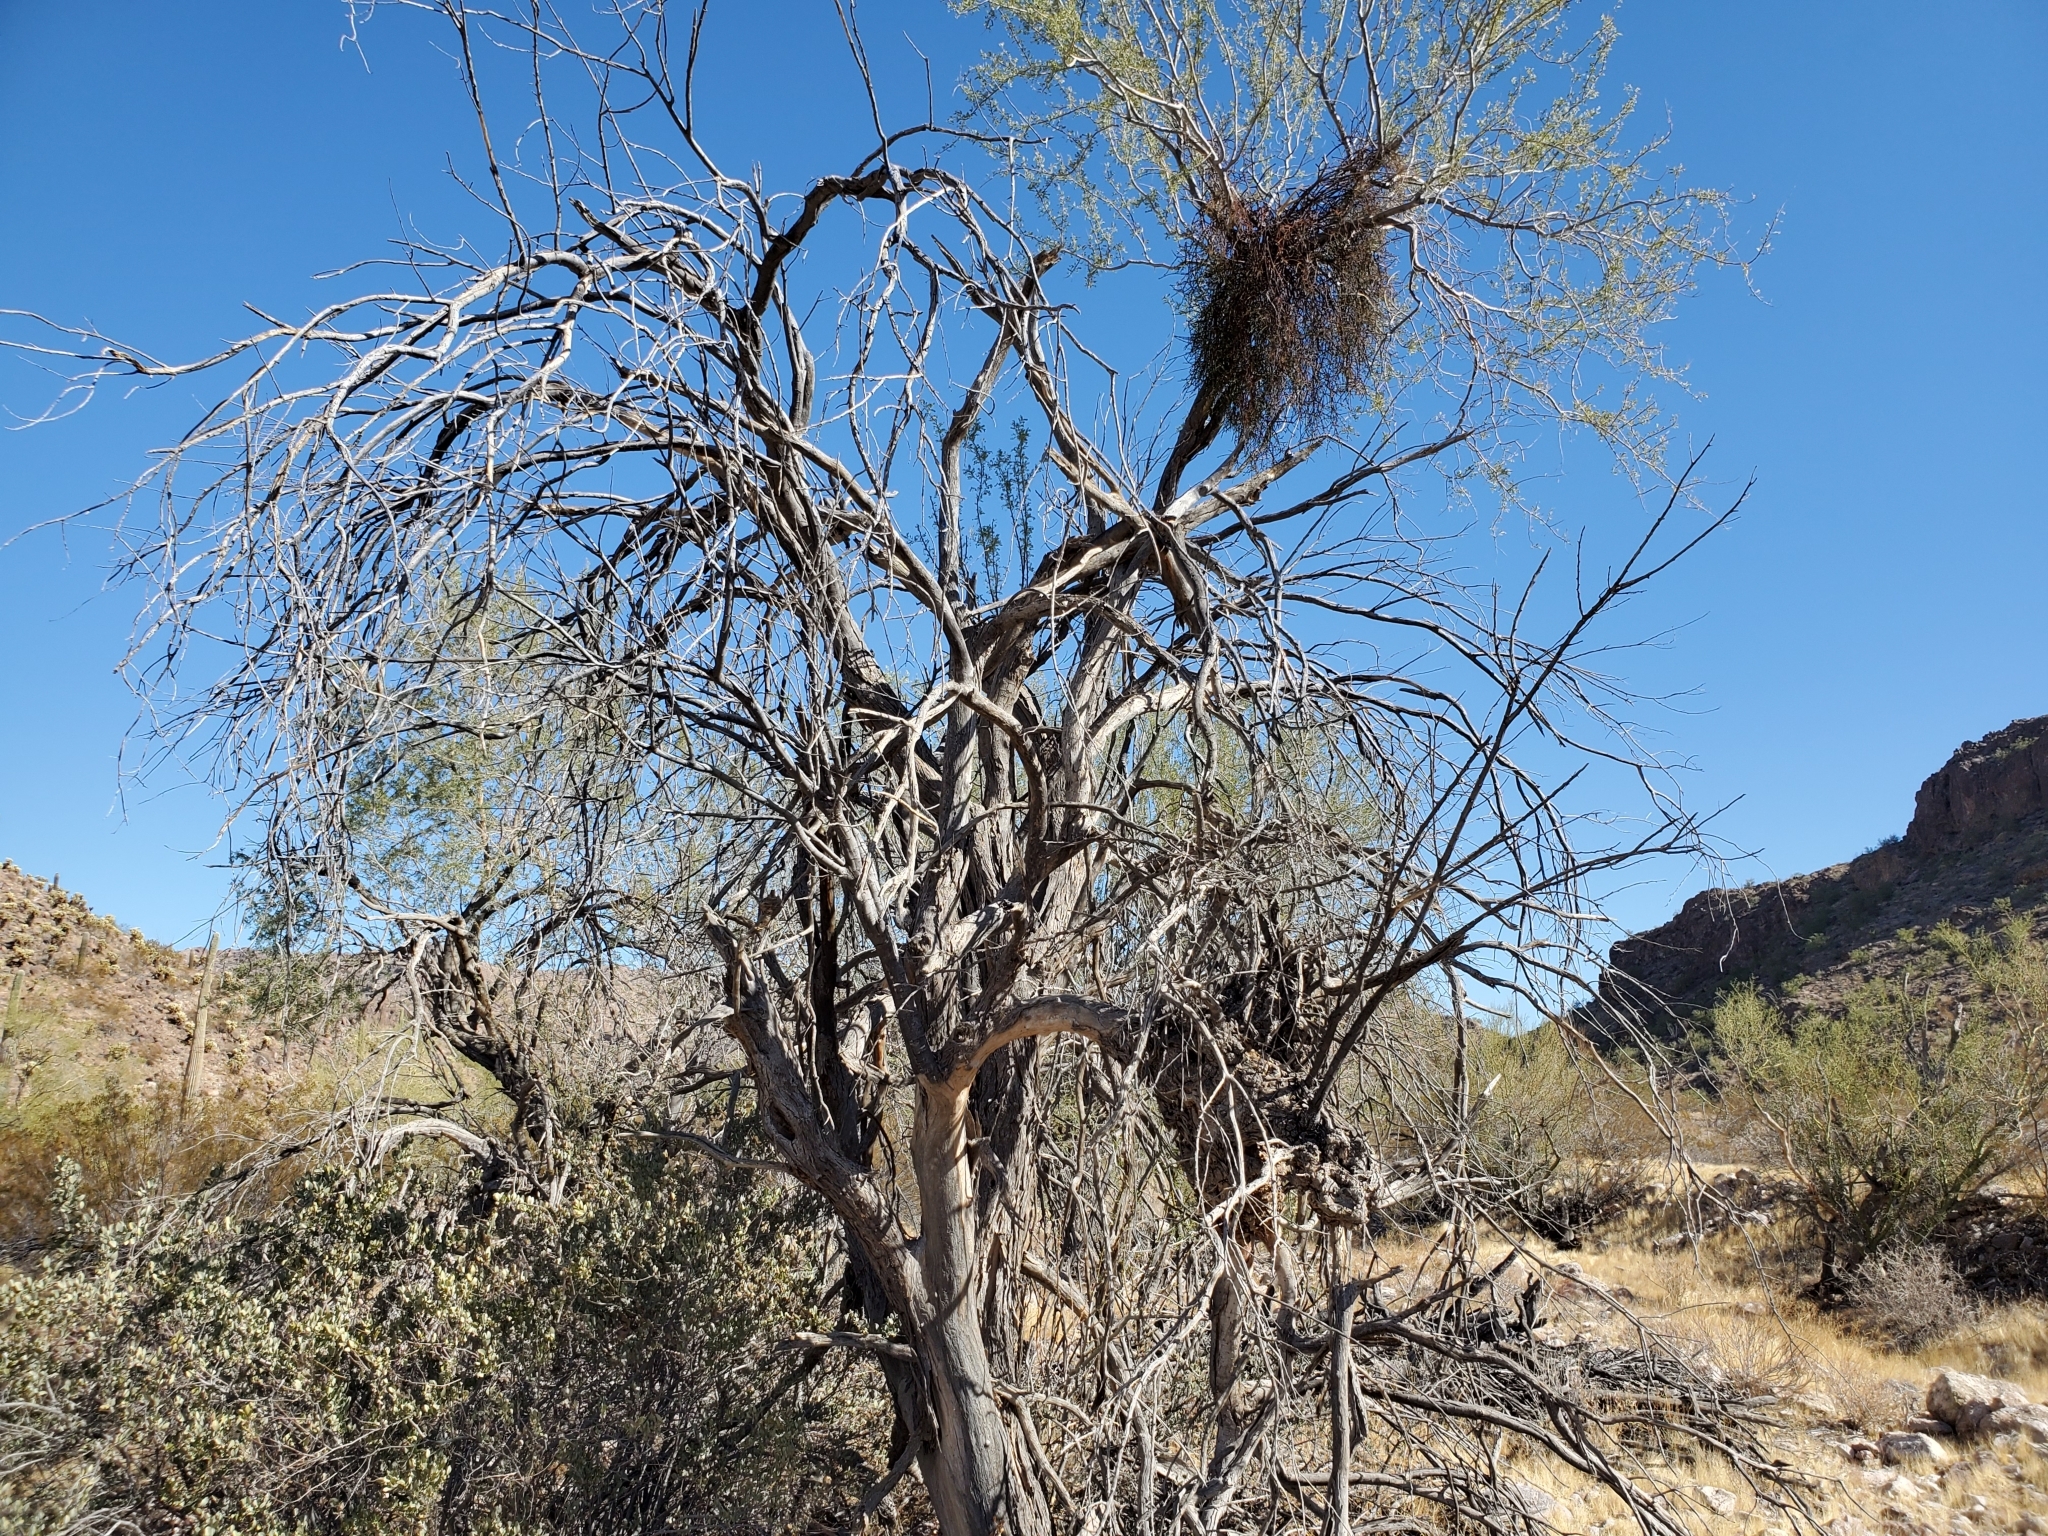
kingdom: Plantae
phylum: Tracheophyta
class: Magnoliopsida
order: Fabales
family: Fabaceae
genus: Olneya
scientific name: Olneya tesota
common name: Desert ironwood
